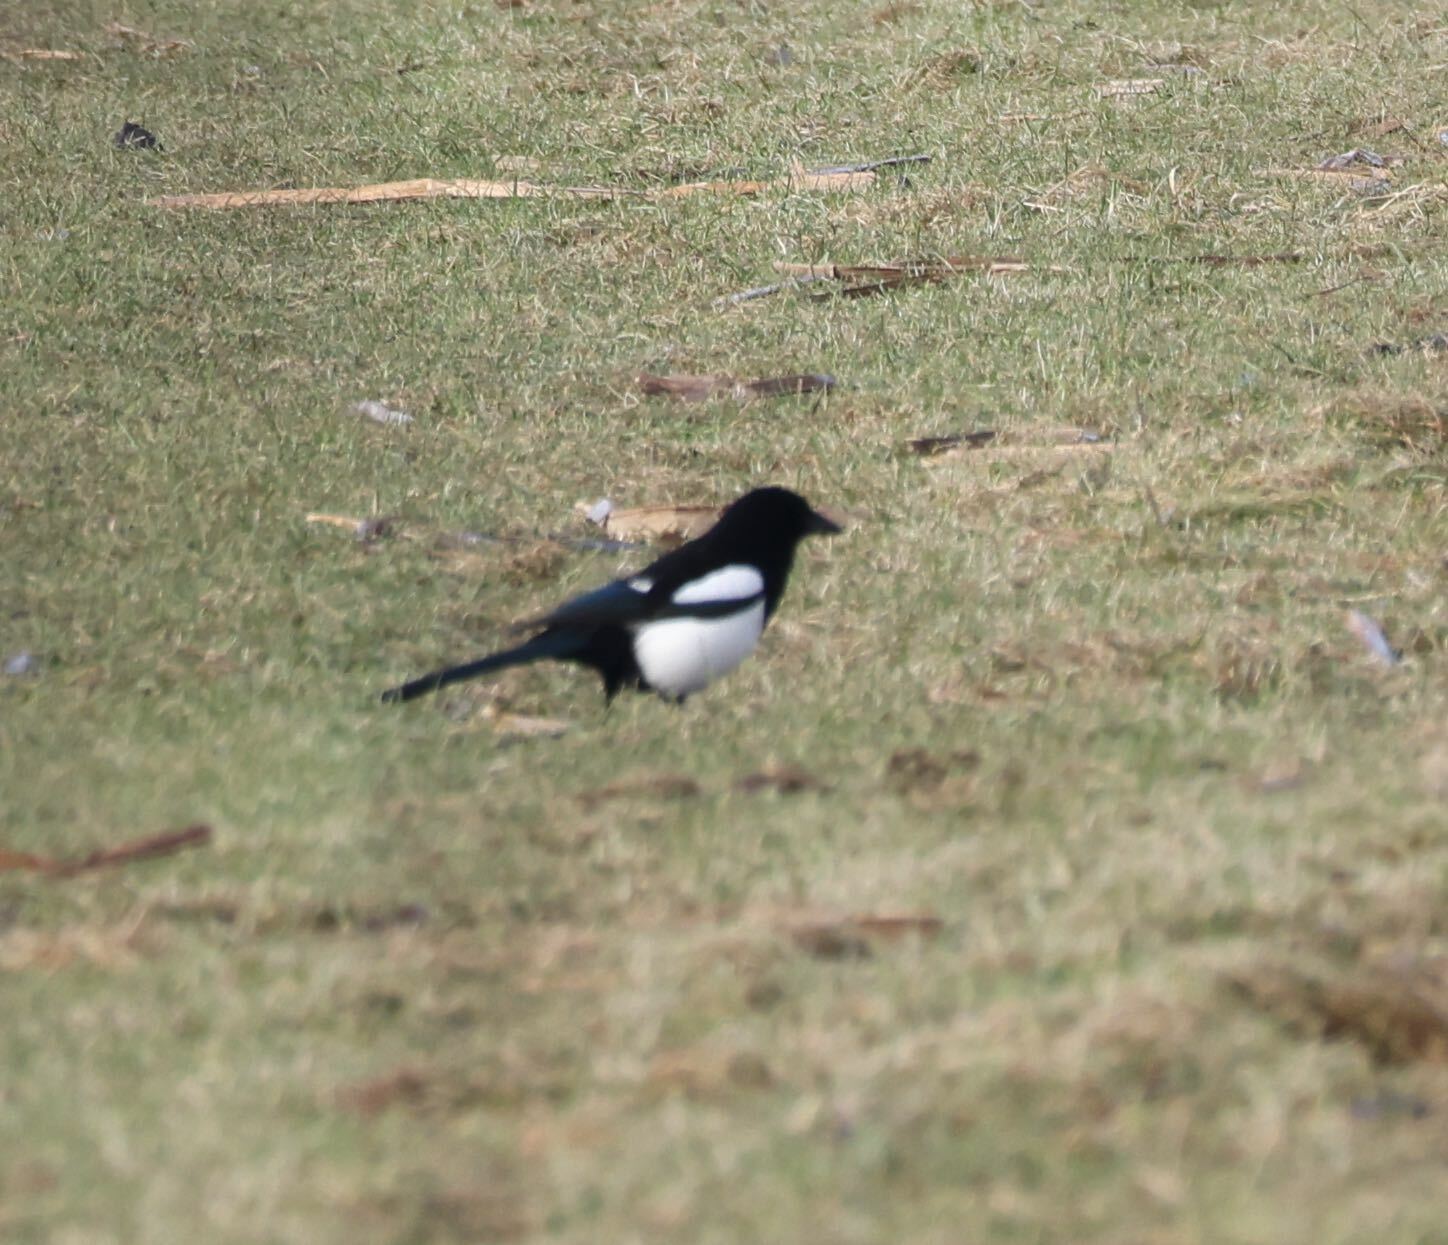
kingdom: Animalia
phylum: Chordata
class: Aves
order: Passeriformes
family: Corvidae
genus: Pica
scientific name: Pica pica
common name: Eurasian magpie
